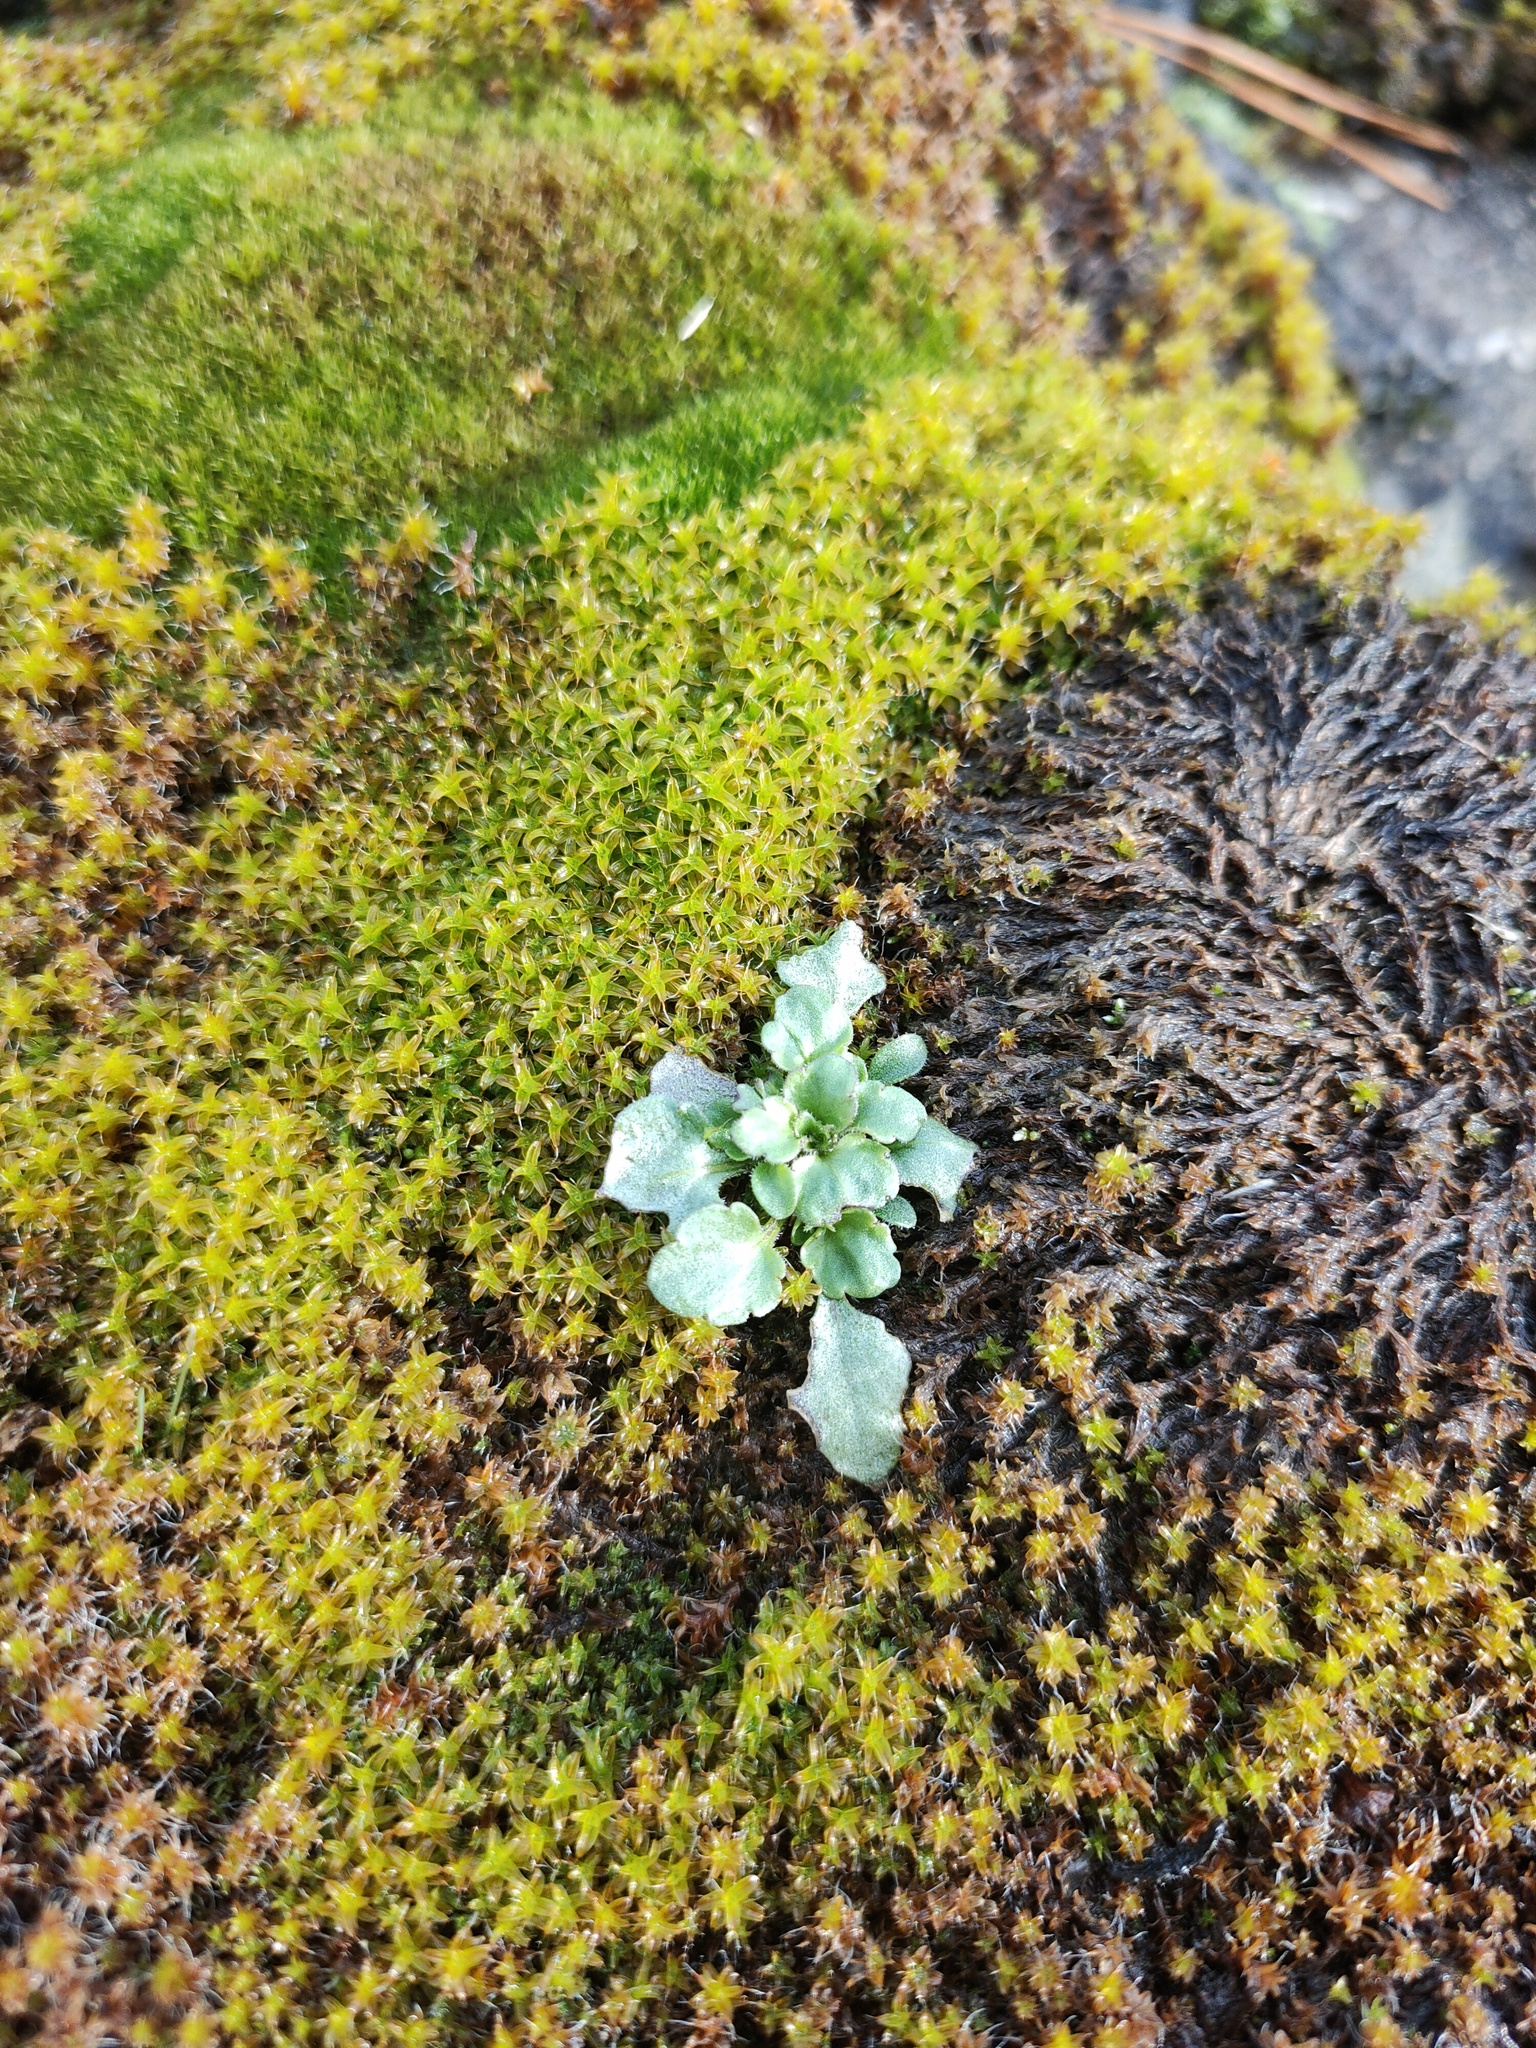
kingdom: Plantae
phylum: Tracheophyta
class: Magnoliopsida
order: Malpighiales
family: Violaceae
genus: Viola
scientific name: Viola arvensis
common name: Field pansy
